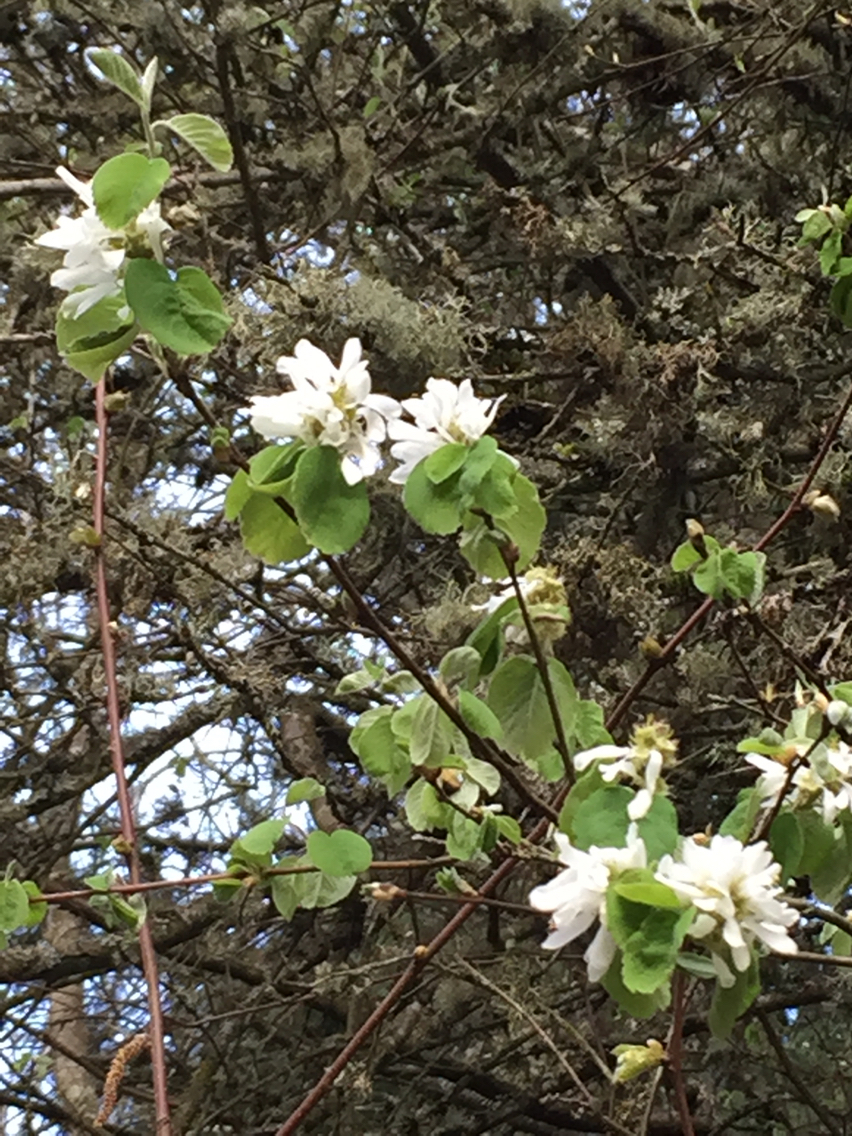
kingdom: Plantae
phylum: Tracheophyta
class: Magnoliopsida
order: Rosales
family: Rosaceae
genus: Amelanchier
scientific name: Amelanchier alnifolia
